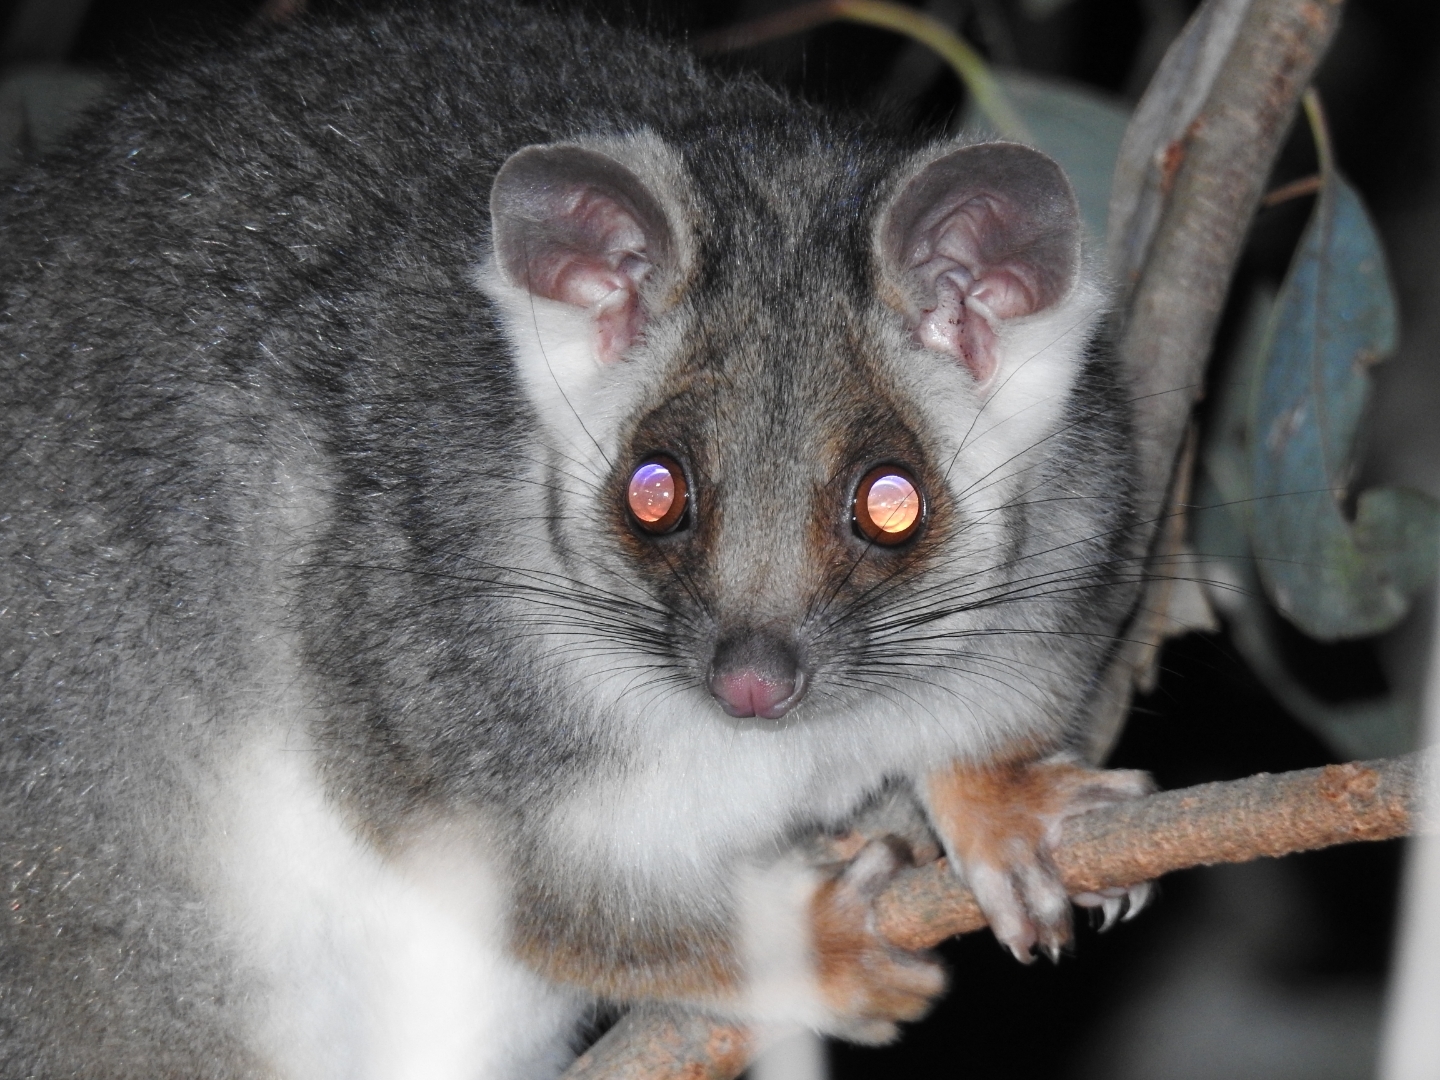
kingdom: Animalia
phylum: Chordata
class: Mammalia
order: Diprotodontia
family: Pseudocheiridae
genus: Pseudocheirus
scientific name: Pseudocheirus peregrinus
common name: Common ringtail possum
